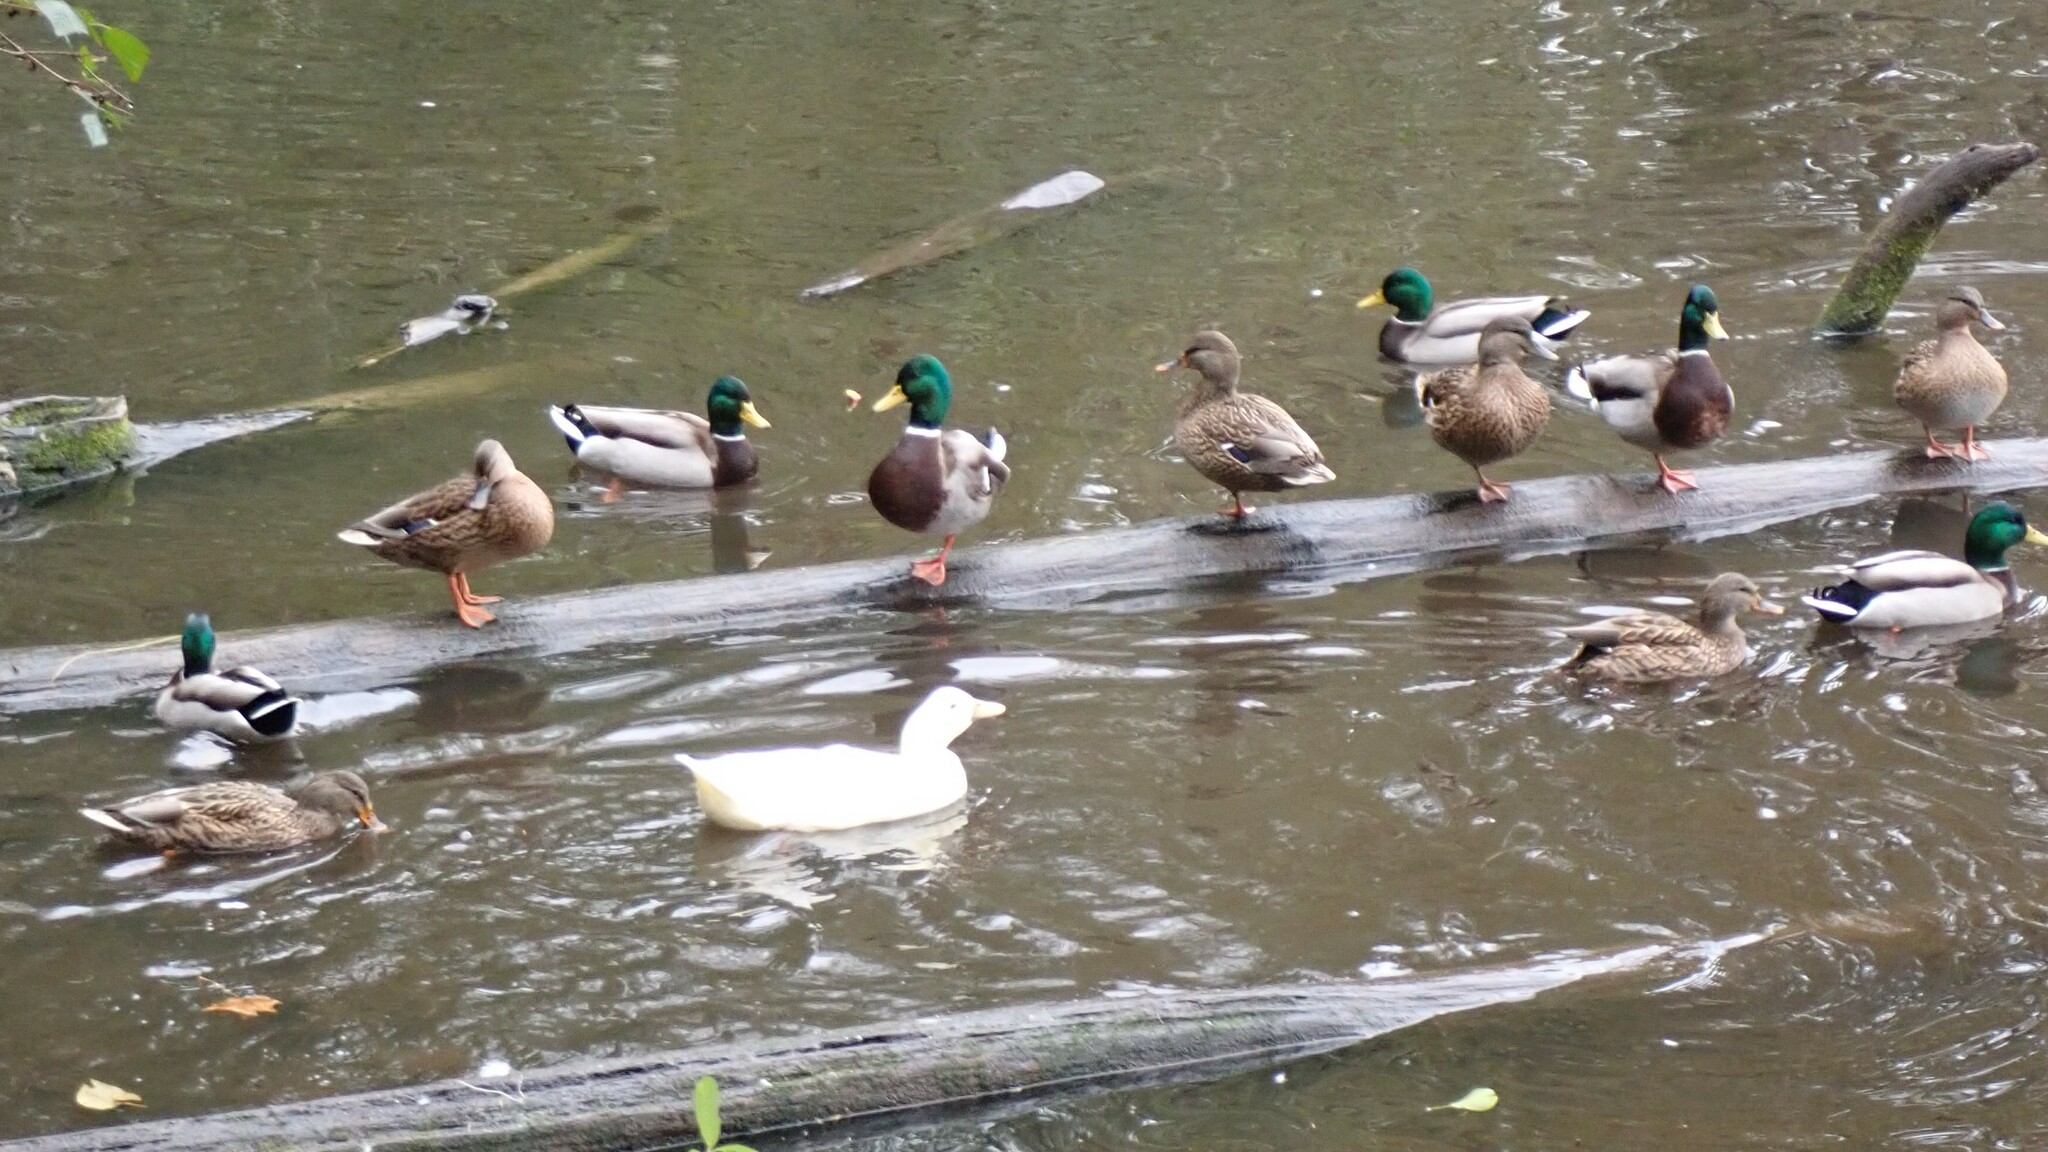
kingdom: Animalia
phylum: Chordata
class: Aves
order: Anseriformes
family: Anatidae
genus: Anas
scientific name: Anas platyrhynchos
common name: Mallard
